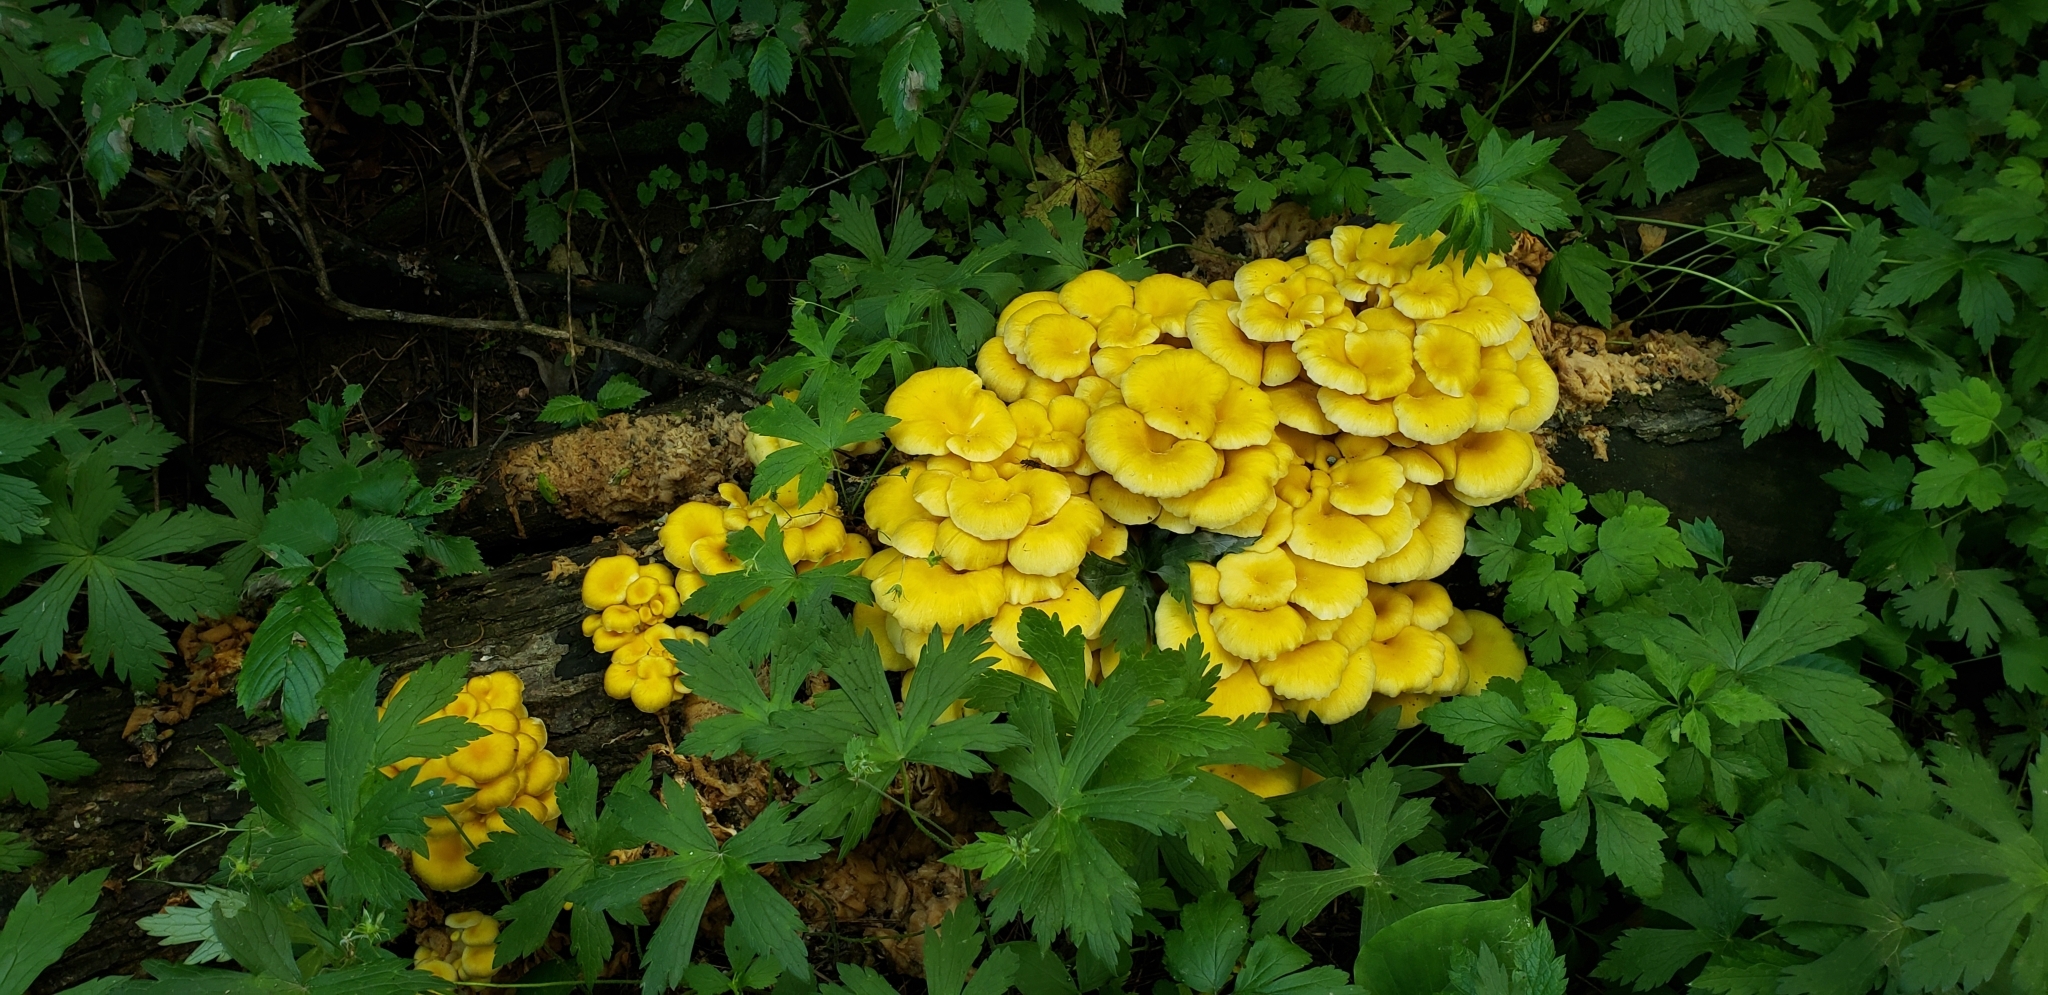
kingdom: Fungi
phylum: Basidiomycota
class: Agaricomycetes
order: Agaricales
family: Pleurotaceae
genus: Pleurotus
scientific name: Pleurotus citrinopileatus
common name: Golden oyster mushroom
